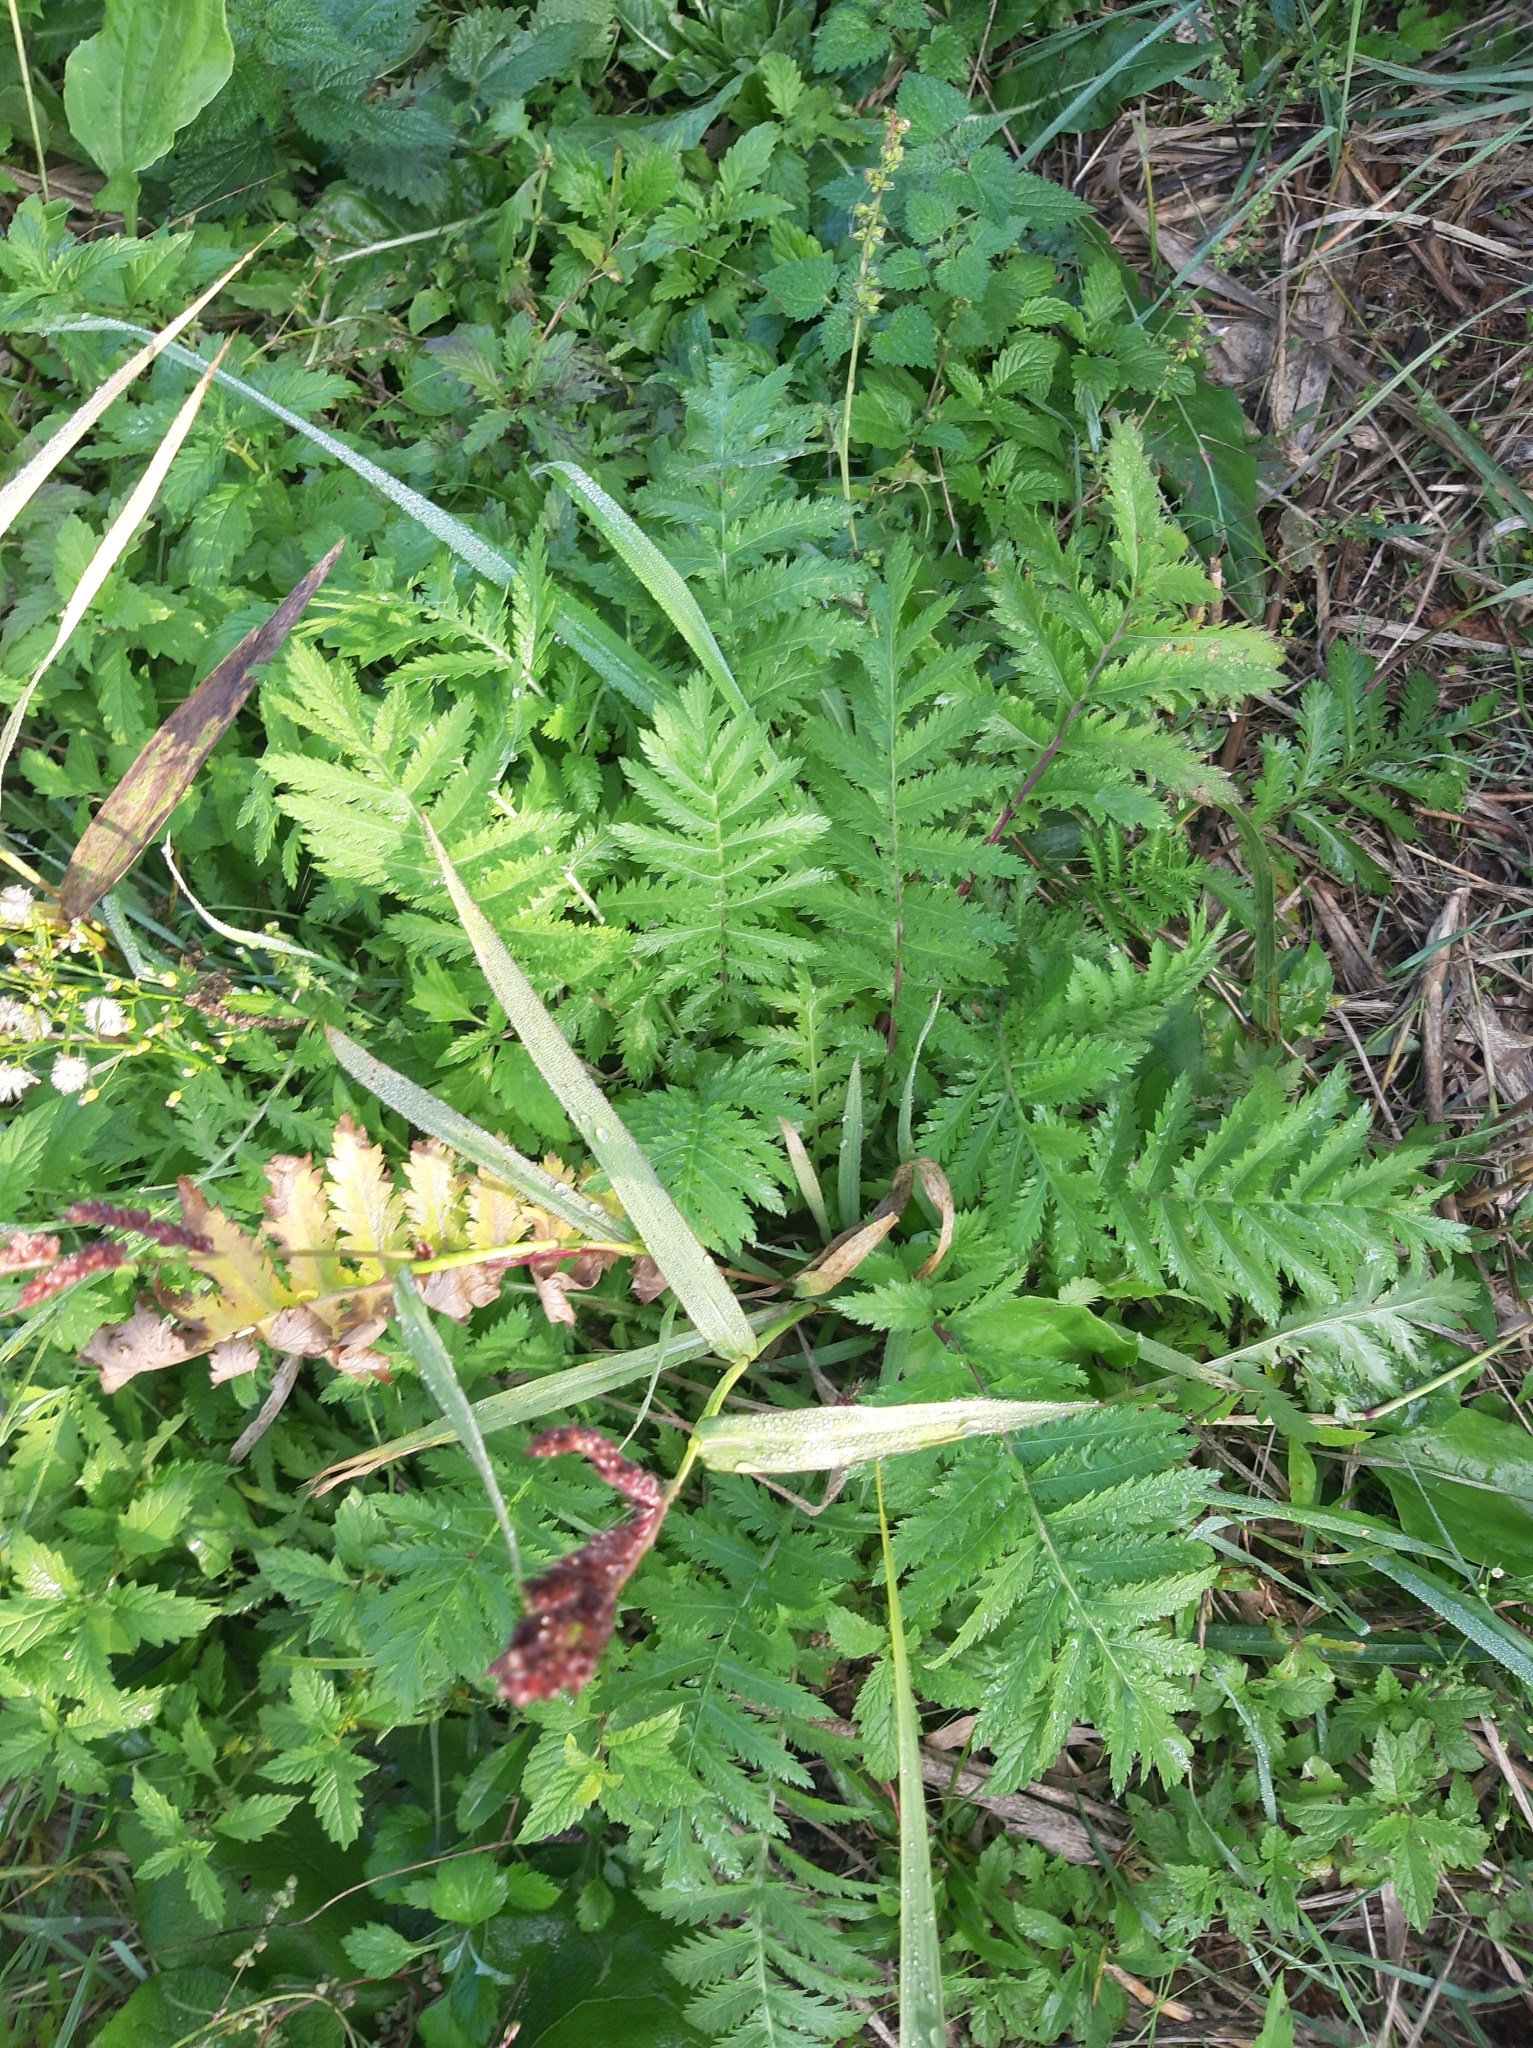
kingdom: Plantae
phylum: Tracheophyta
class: Magnoliopsida
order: Asterales
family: Asteraceae
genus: Tanacetum
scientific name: Tanacetum vulgare
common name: Common tansy
